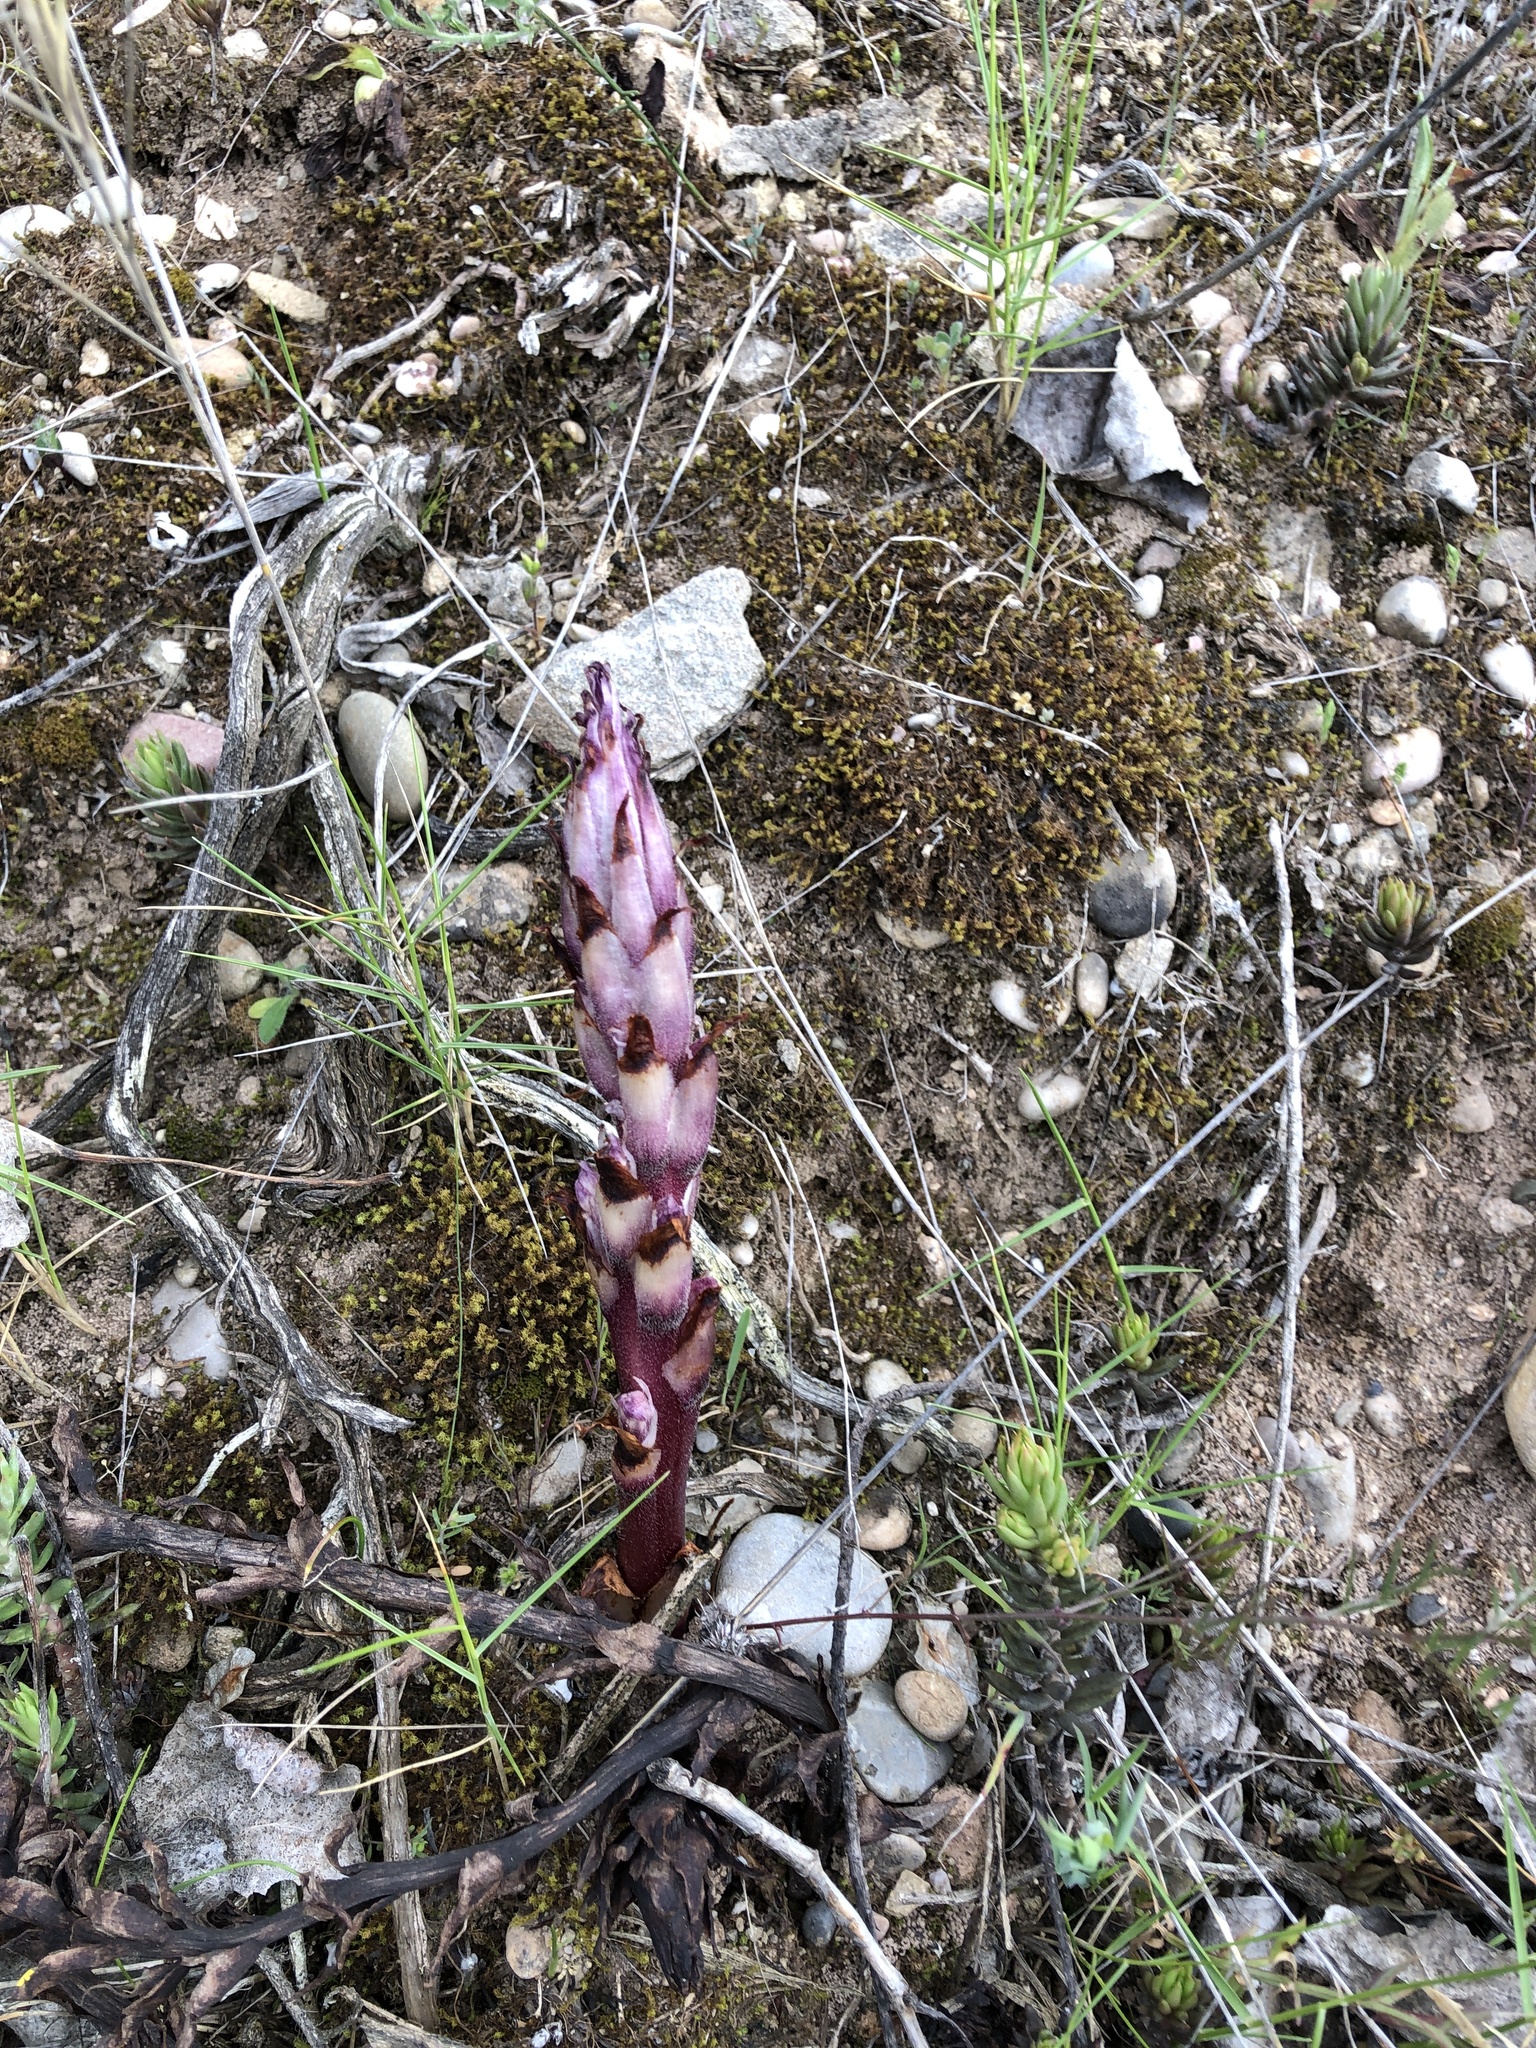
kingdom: Plantae
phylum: Tracheophyta
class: Magnoliopsida
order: Lamiales
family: Orobanchaceae
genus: Boulardia
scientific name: Boulardia latisquama
